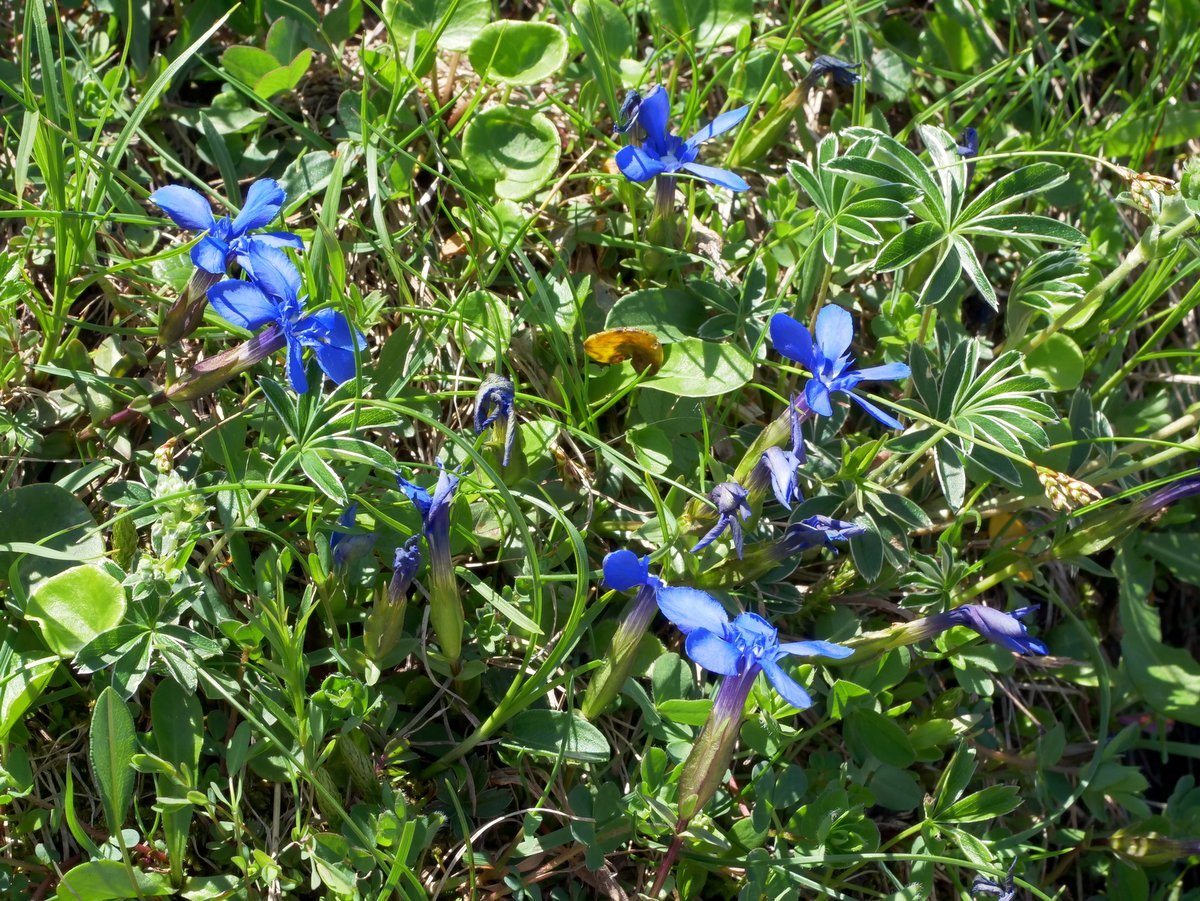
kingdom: Plantae
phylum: Tracheophyta
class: Magnoliopsida
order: Gentianales
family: Gentianaceae
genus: Gentiana
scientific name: Gentiana verna
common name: Spring gentian
